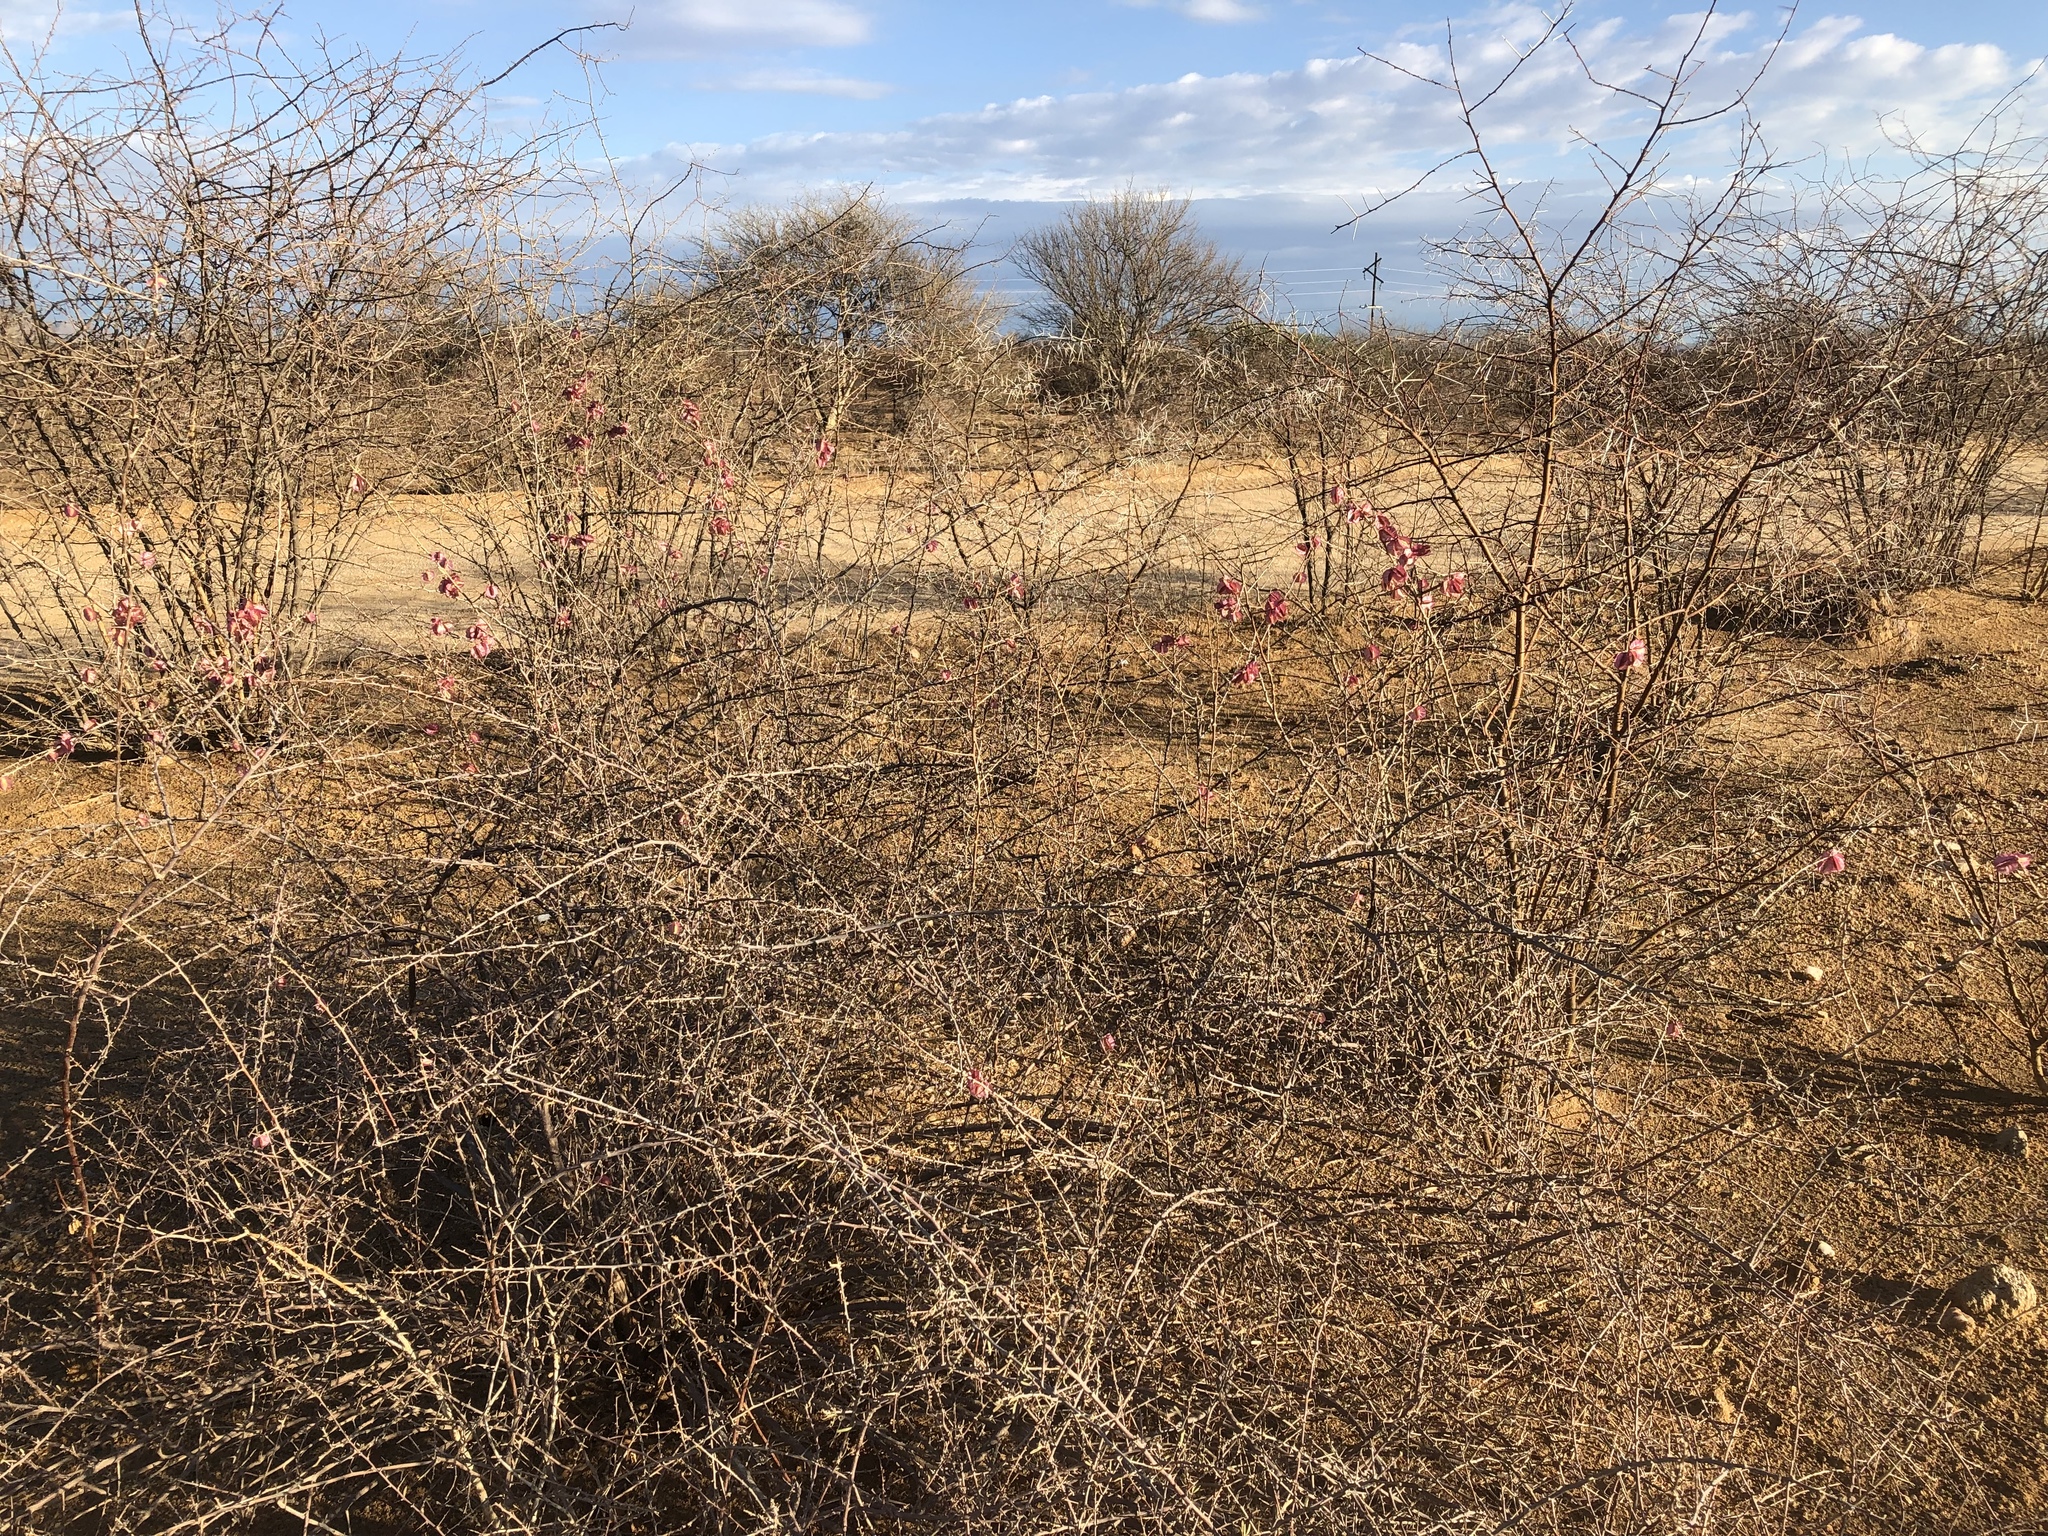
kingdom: Plantae
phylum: Tracheophyta
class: Magnoliopsida
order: Caryophyllales
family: Nyctaginaceae
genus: Phaeoptilum
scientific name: Phaeoptilum spinosum
